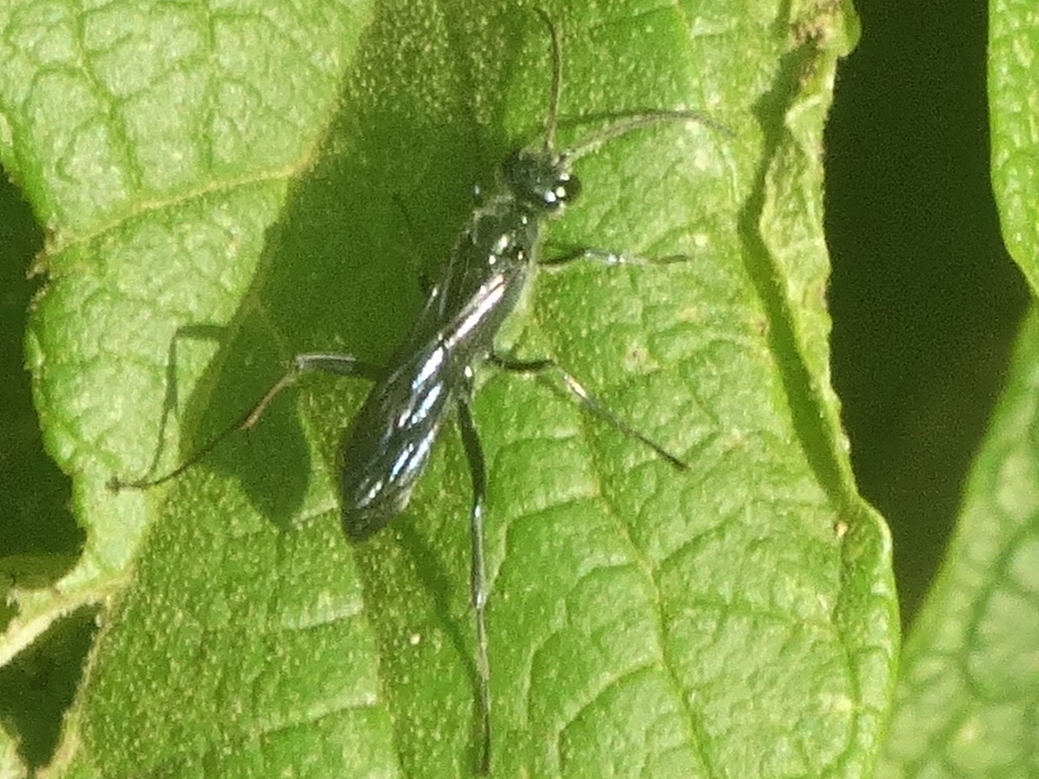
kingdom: Animalia
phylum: Arthropoda
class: Insecta
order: Hymenoptera
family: Sphecidae
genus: Chalybion
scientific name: Chalybion
